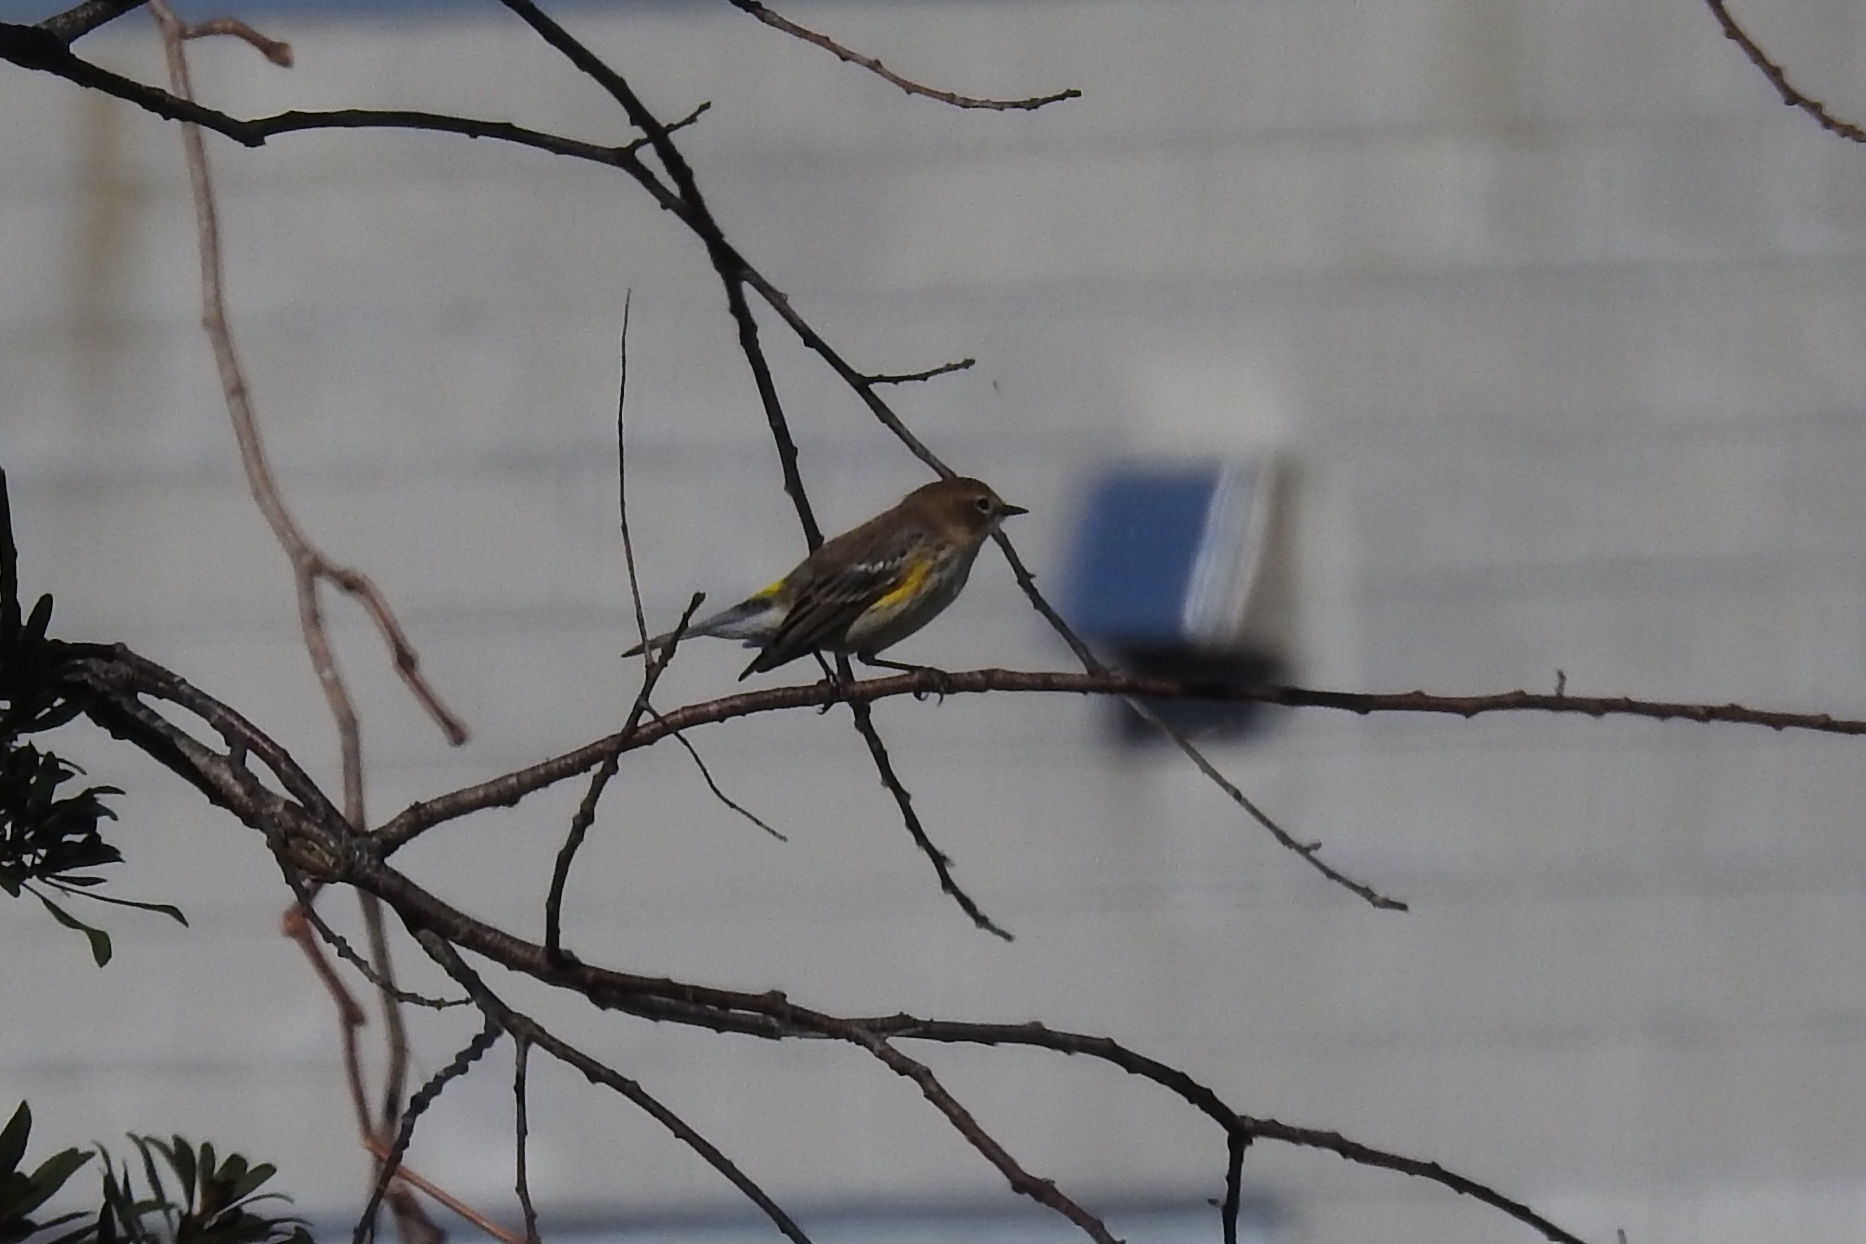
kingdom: Animalia
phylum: Chordata
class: Aves
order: Passeriformes
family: Parulidae
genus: Setophaga
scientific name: Setophaga coronata
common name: Myrtle warbler
